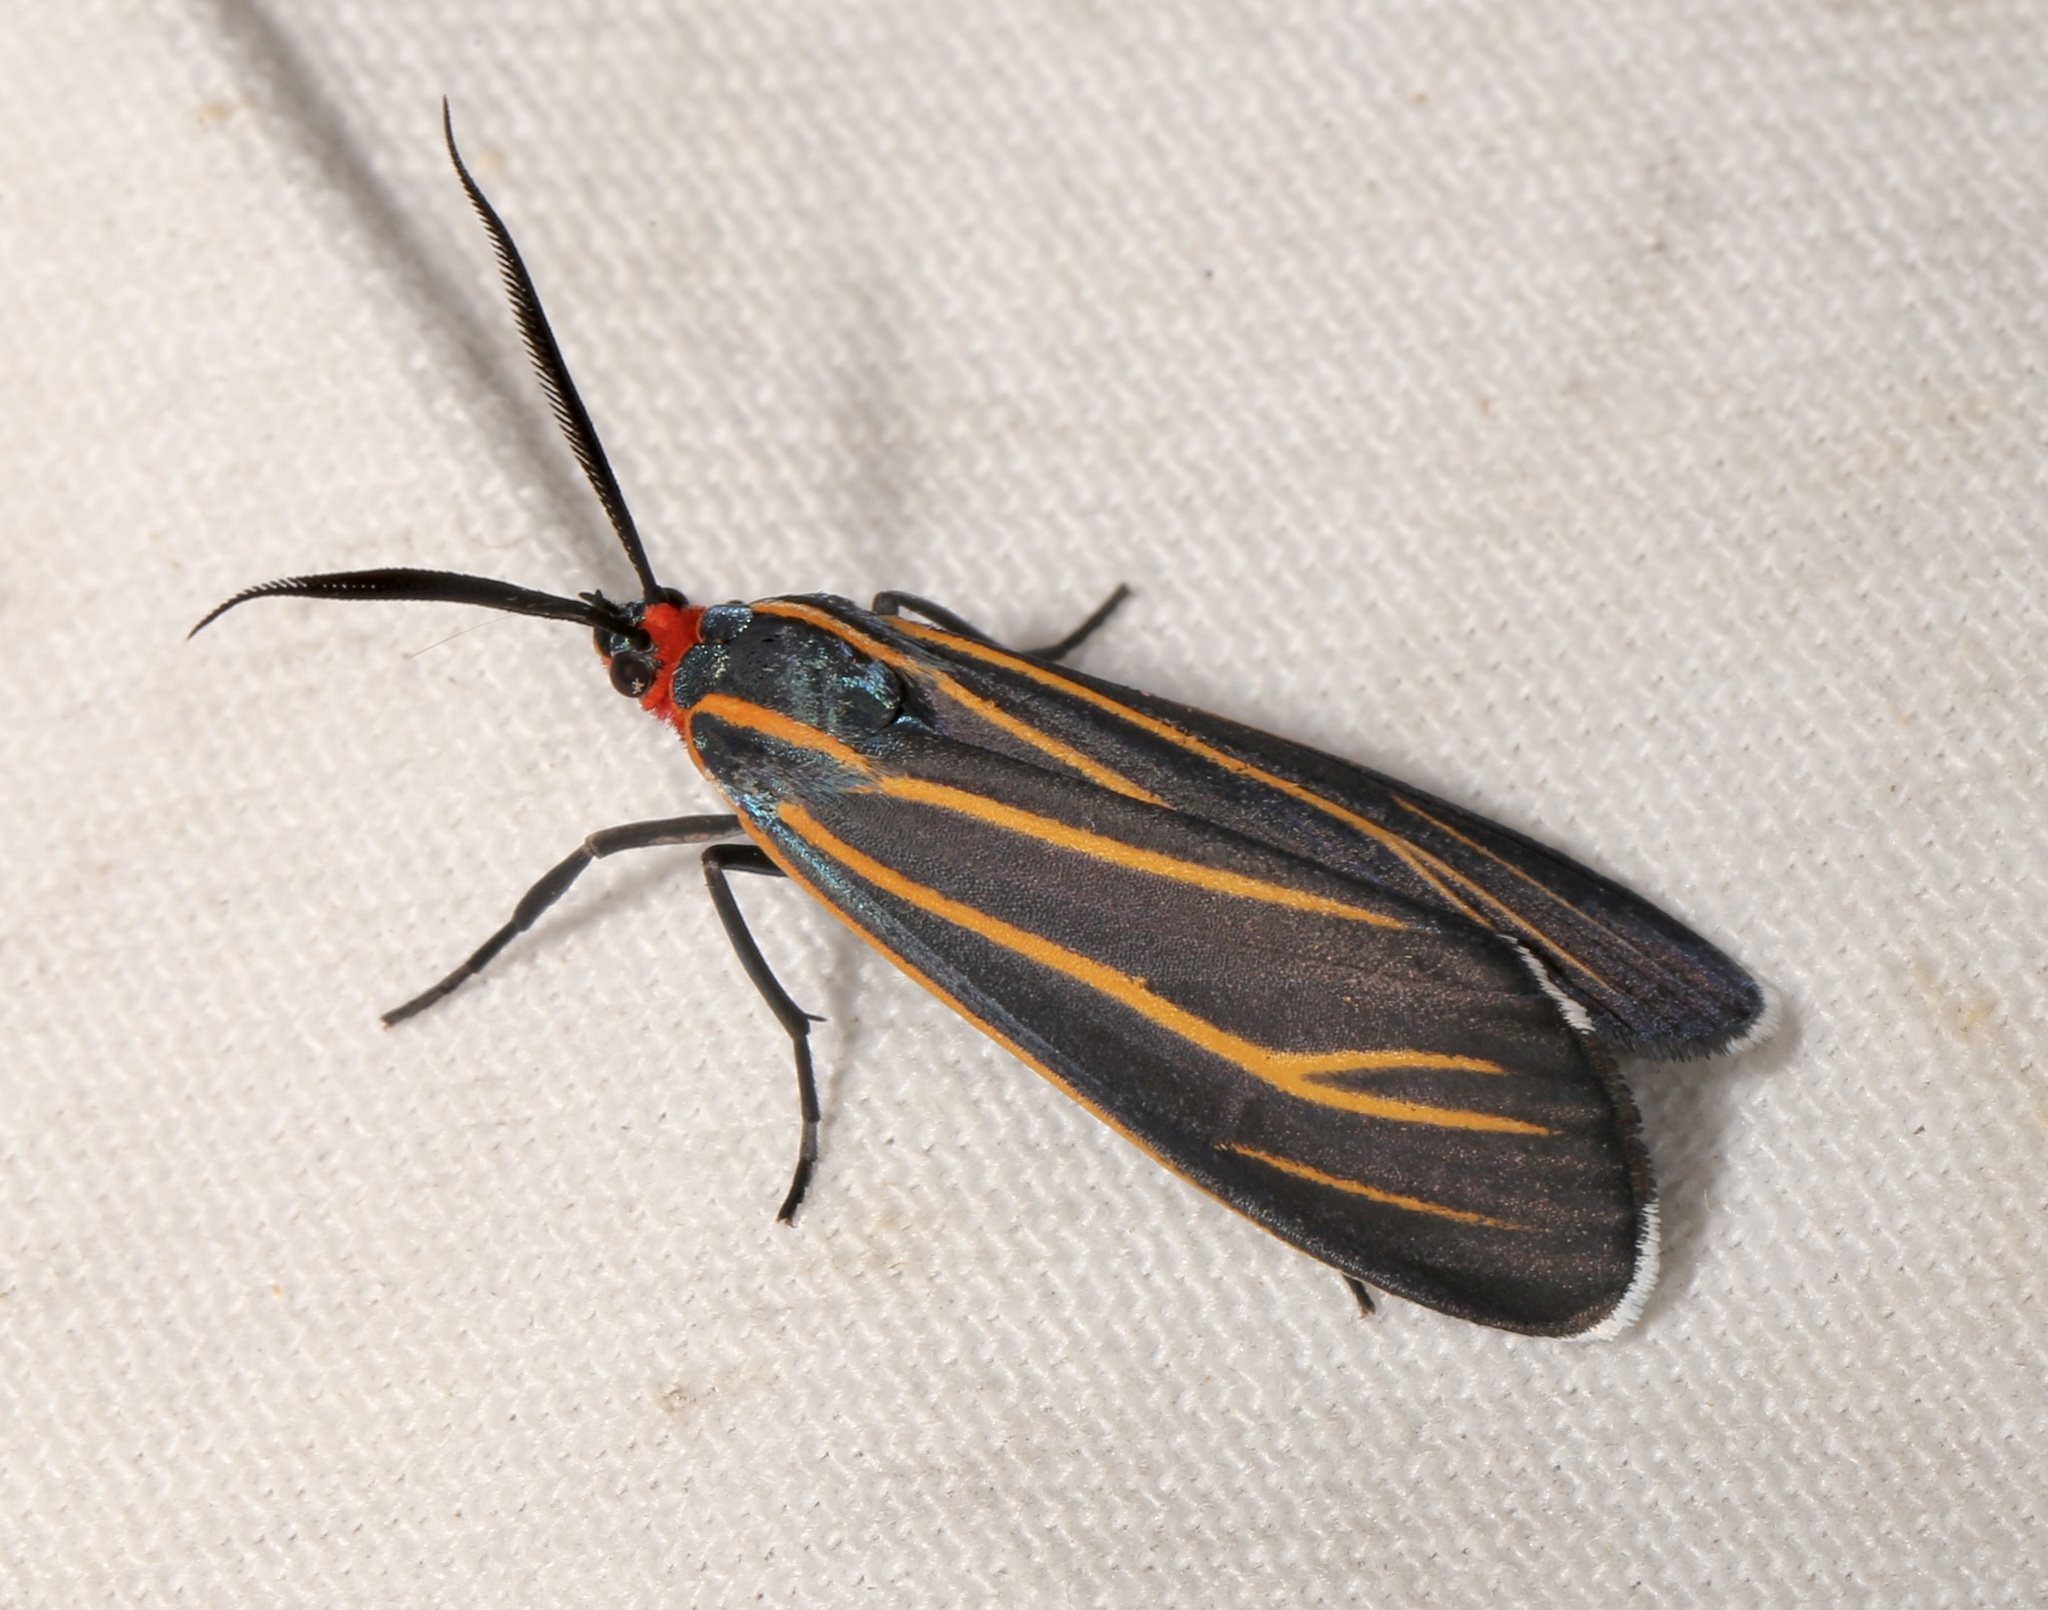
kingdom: Animalia
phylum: Arthropoda
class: Insecta
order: Lepidoptera
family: Erebidae
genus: Ctenucha
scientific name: Ctenucha venosa
